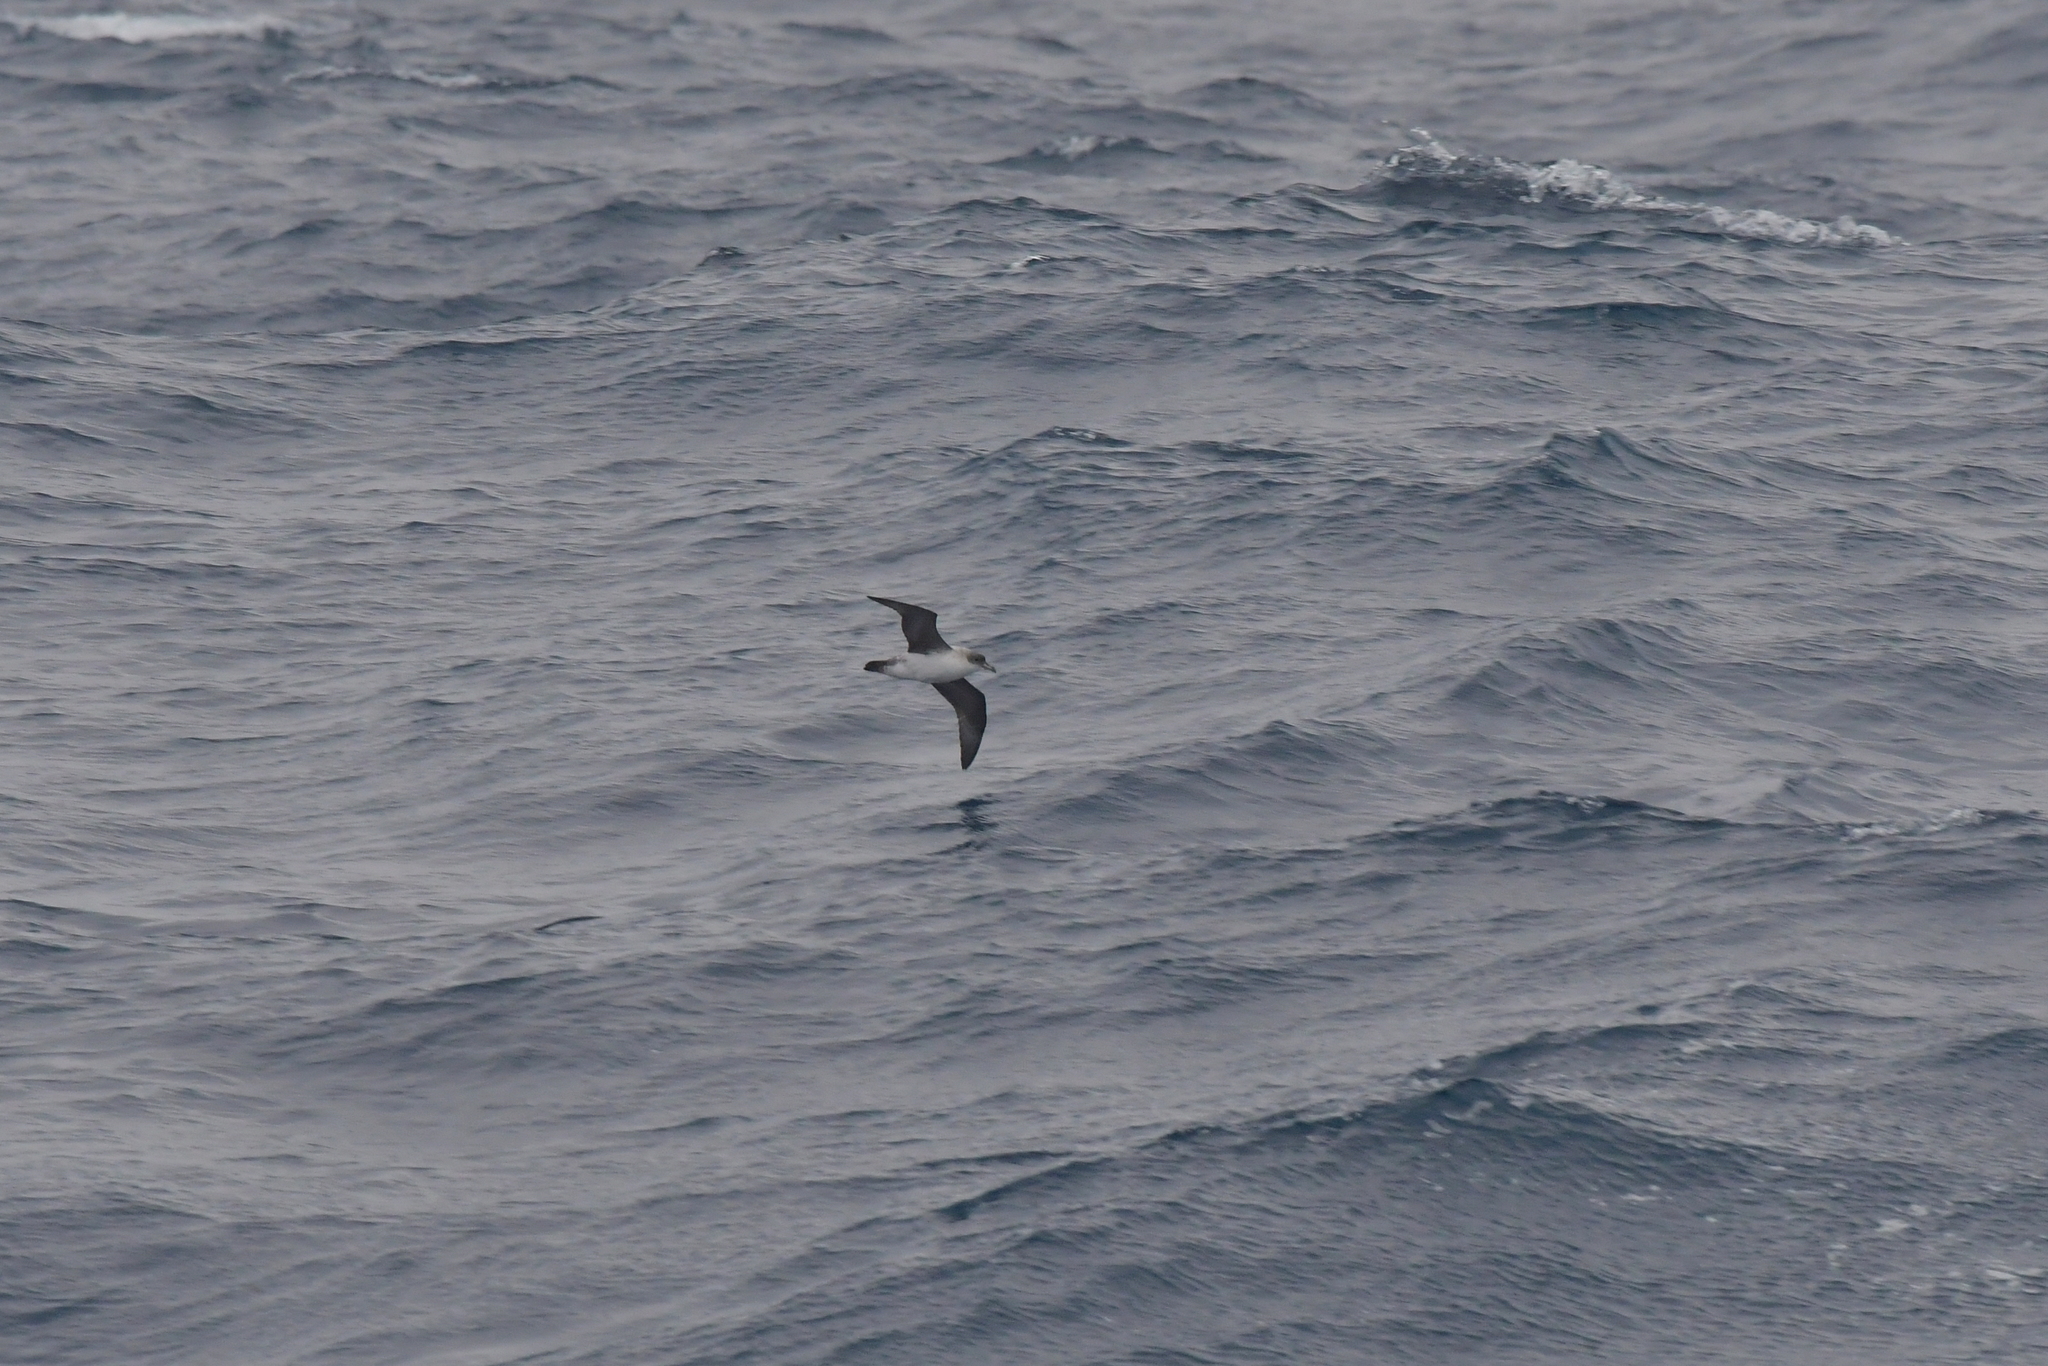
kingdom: Animalia
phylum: Chordata
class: Aves
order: Procellariiformes
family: Procellariidae
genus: Procellaria
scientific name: Procellaria cinerea
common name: Grey petrel
